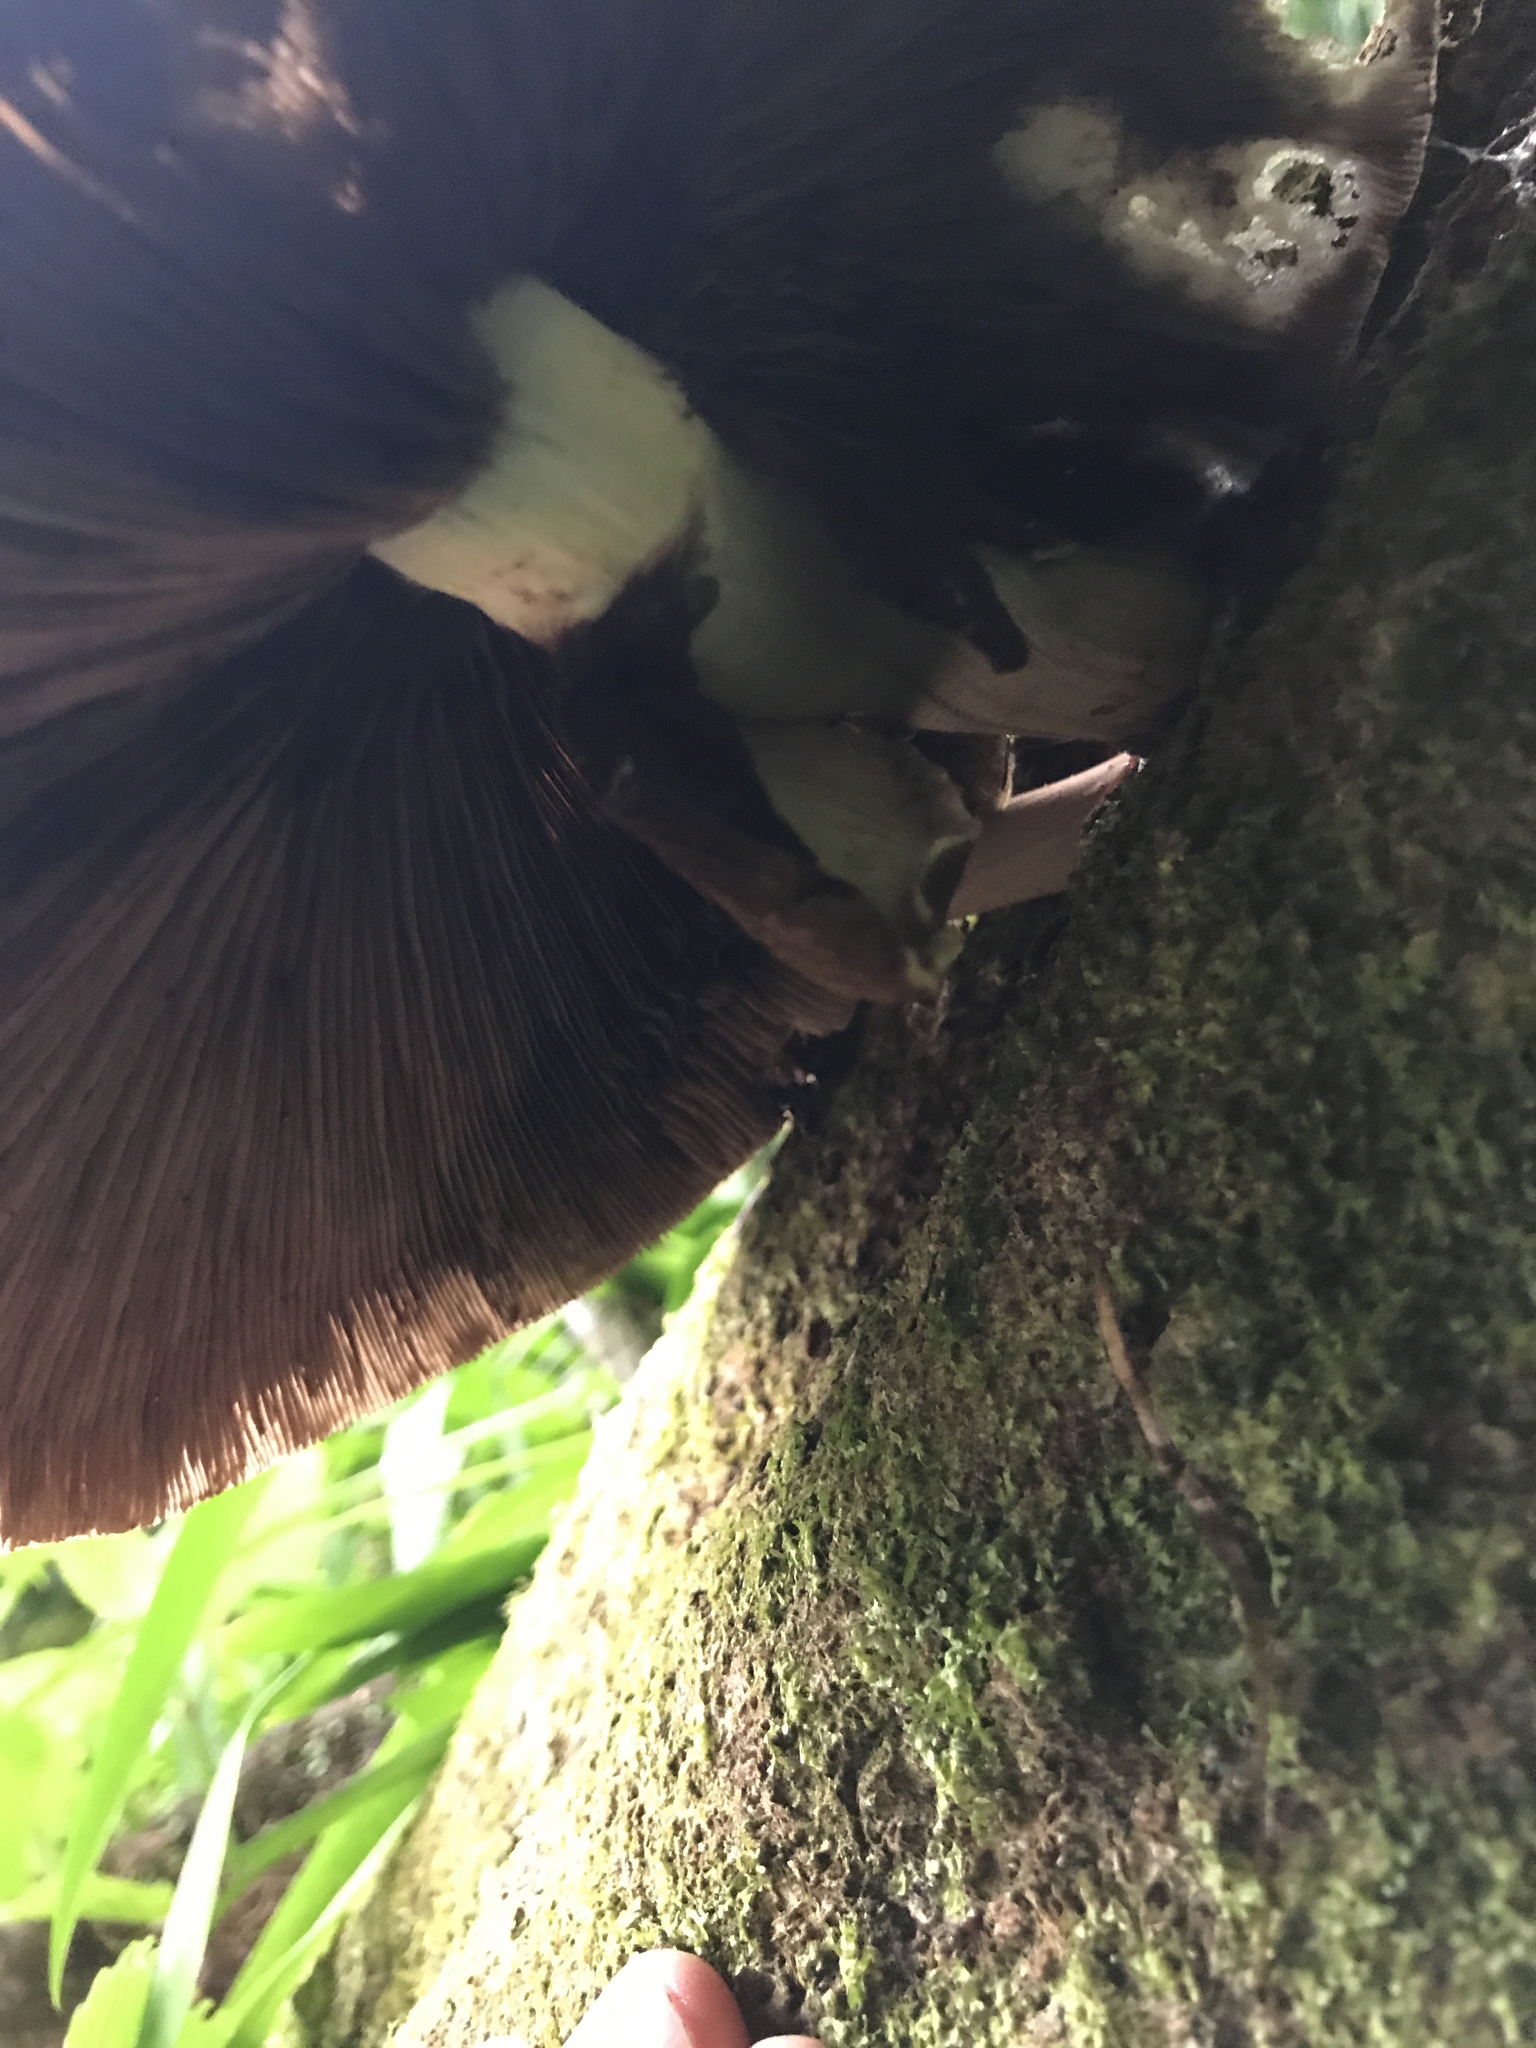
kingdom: Fungi
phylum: Basidiomycota
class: Agaricomycetes
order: Agaricales
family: Tubariaceae
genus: Cyclocybe
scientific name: Cyclocybe parasitica
